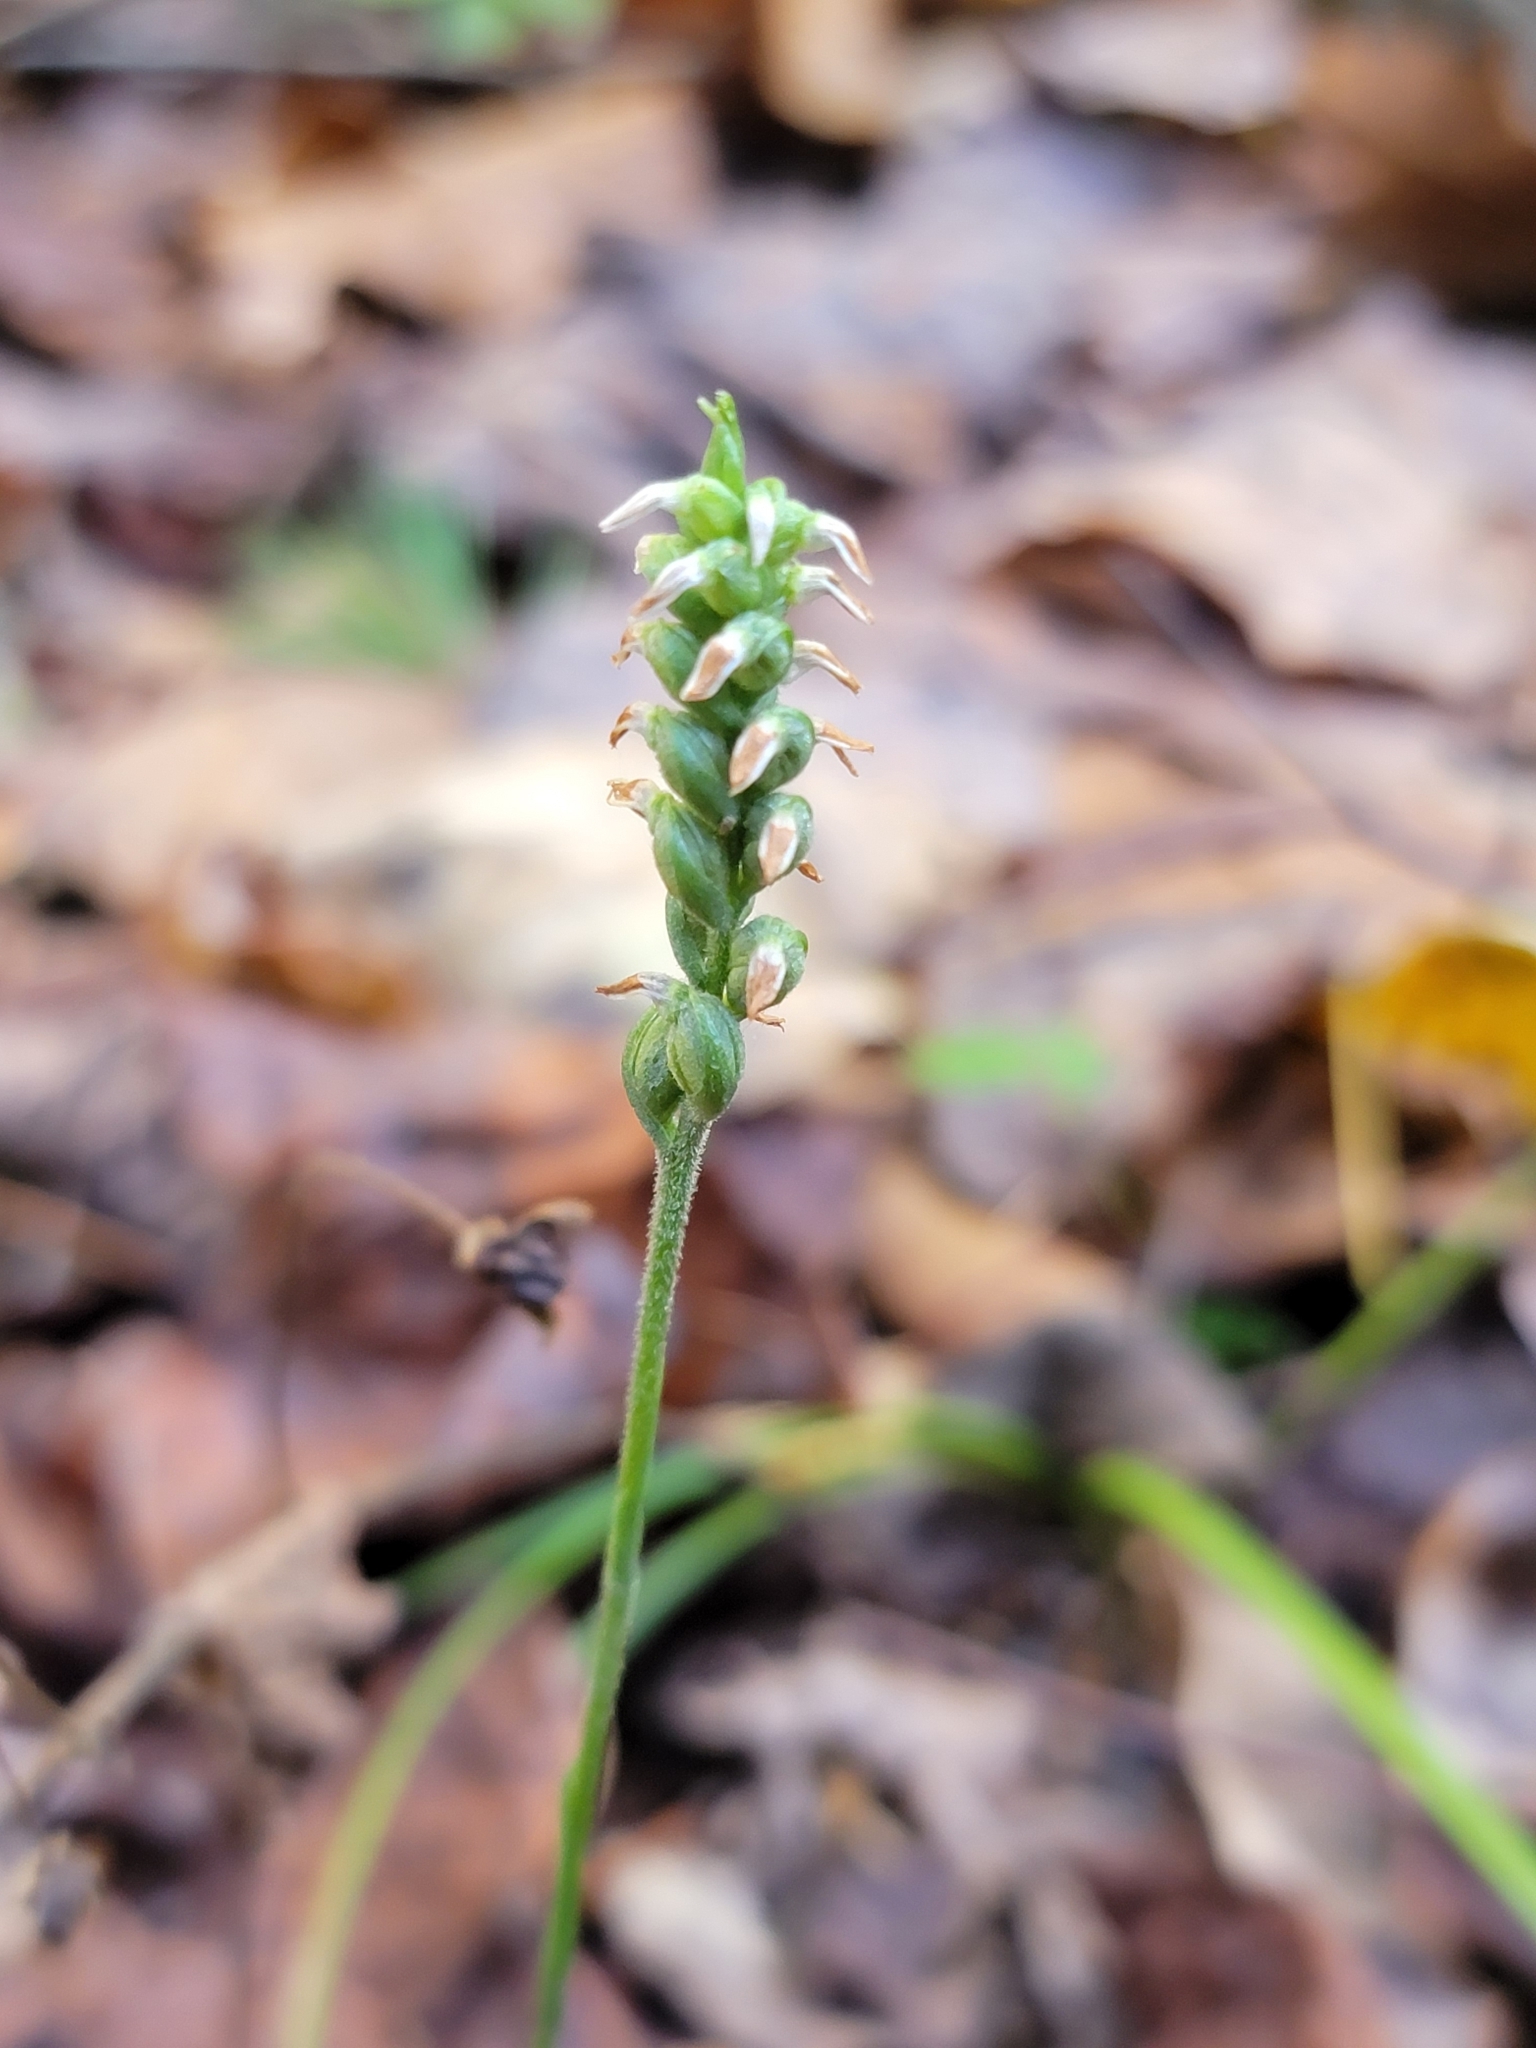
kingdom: Plantae
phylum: Tracheophyta
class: Liliopsida
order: Asparagales
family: Orchidaceae
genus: Spiranthes
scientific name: Spiranthes ovalis
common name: October ladies'-tresses
